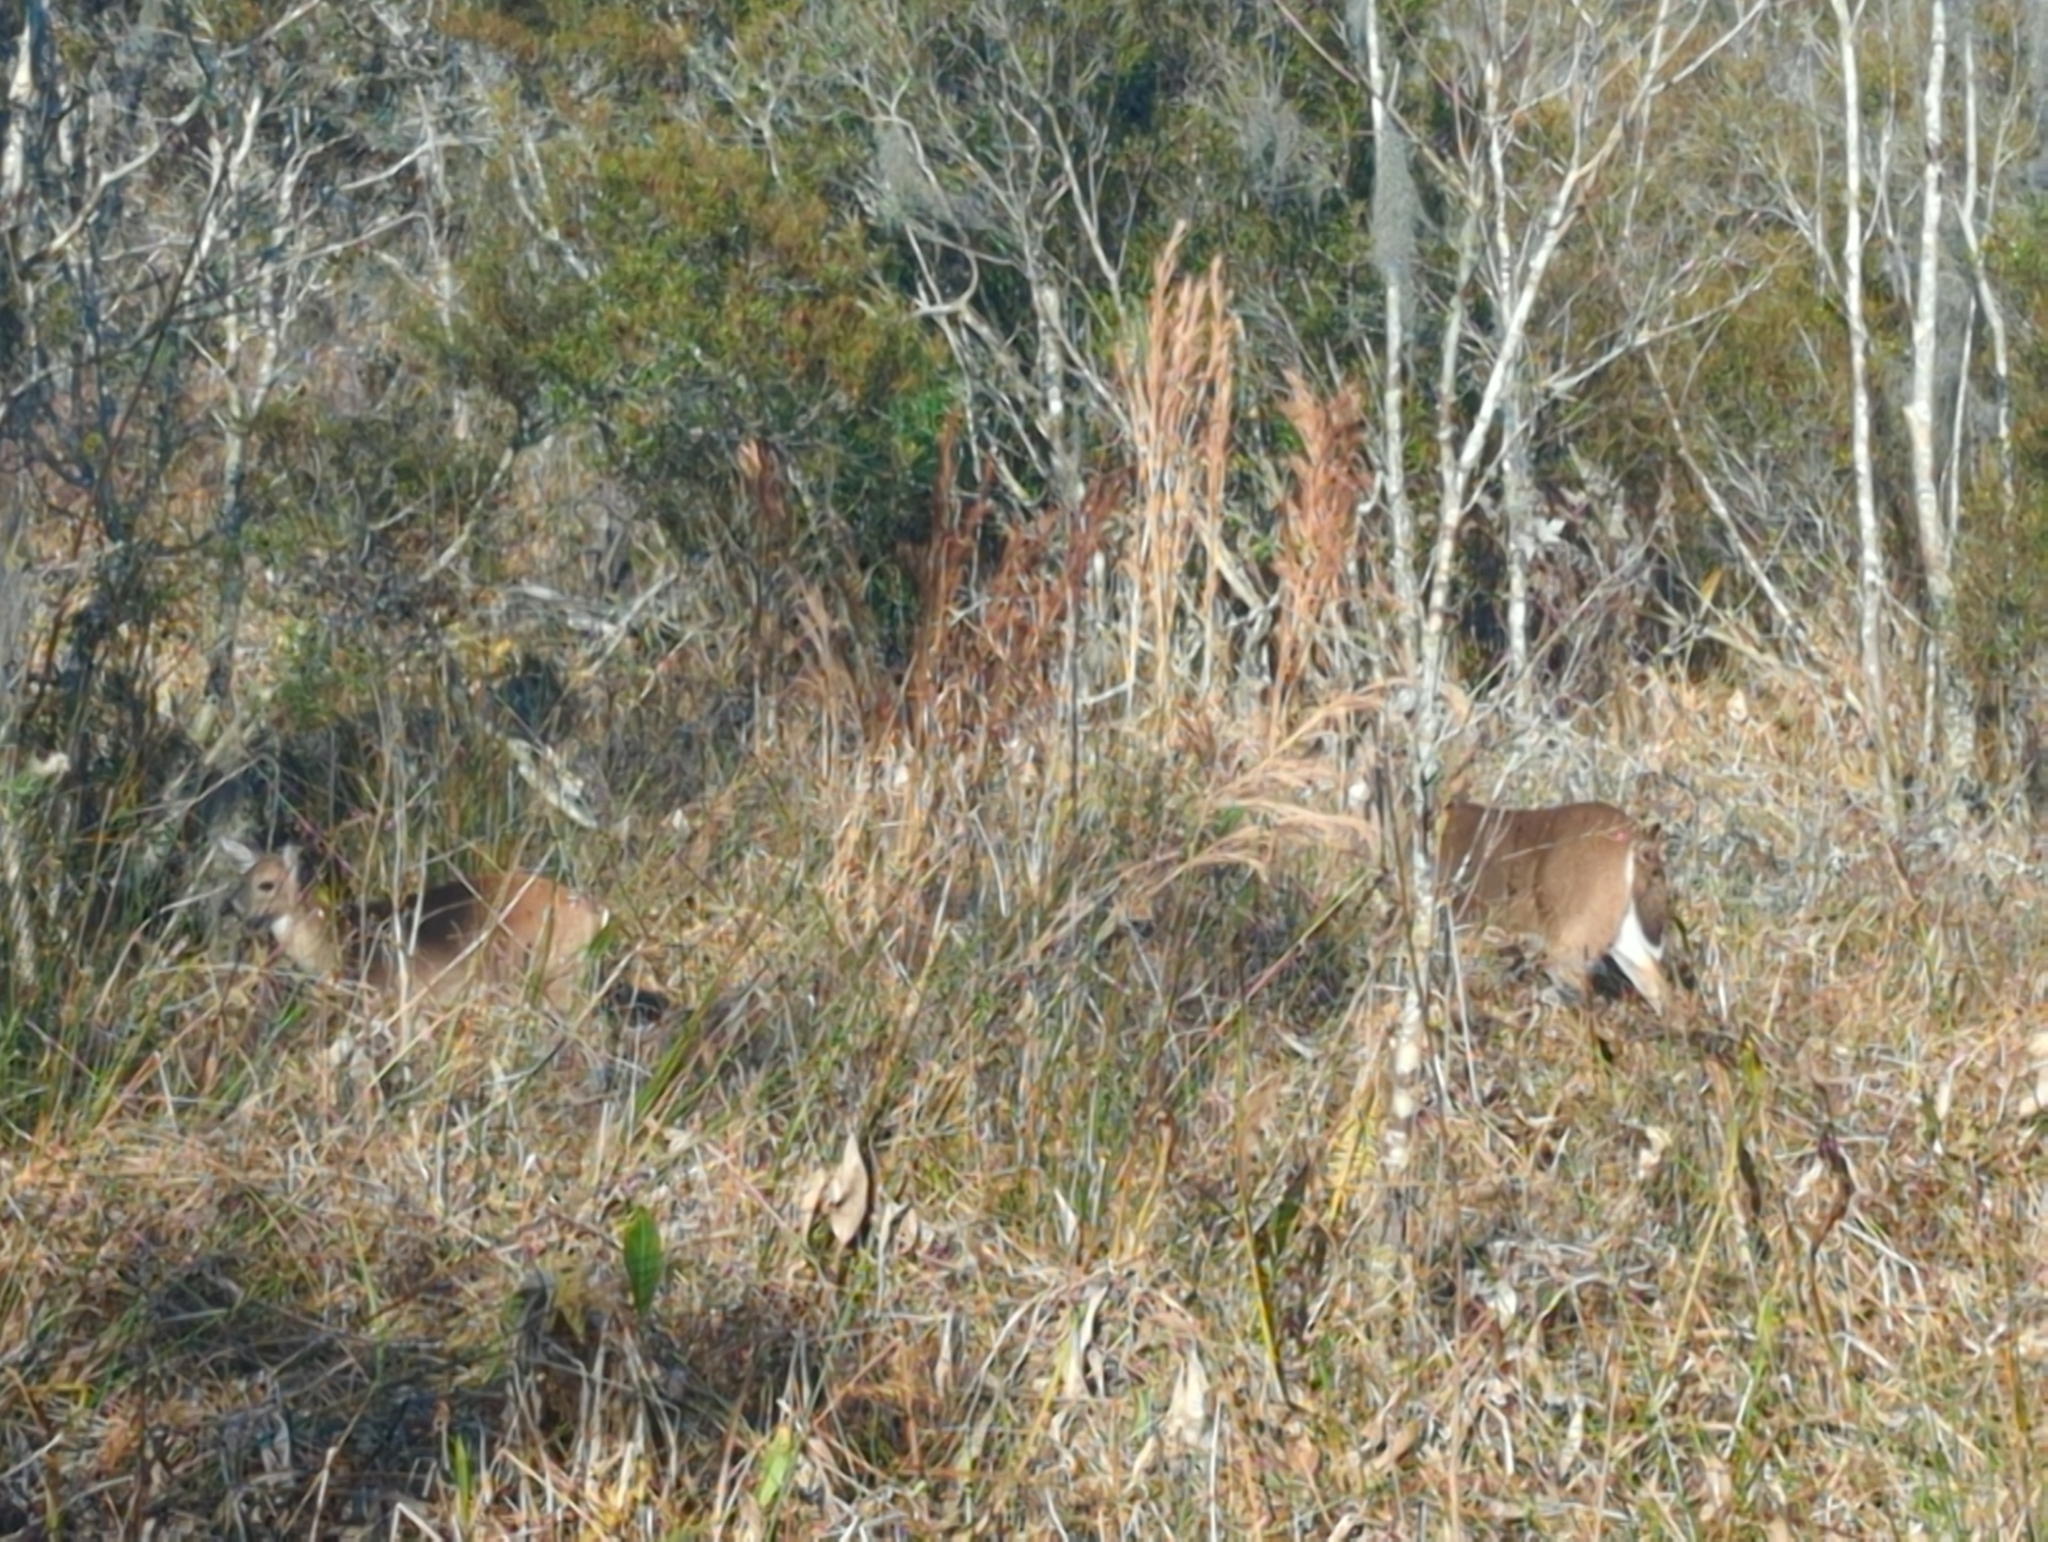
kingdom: Animalia
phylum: Chordata
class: Mammalia
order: Artiodactyla
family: Cervidae
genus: Odocoileus
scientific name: Odocoileus virginianus
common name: White-tailed deer
